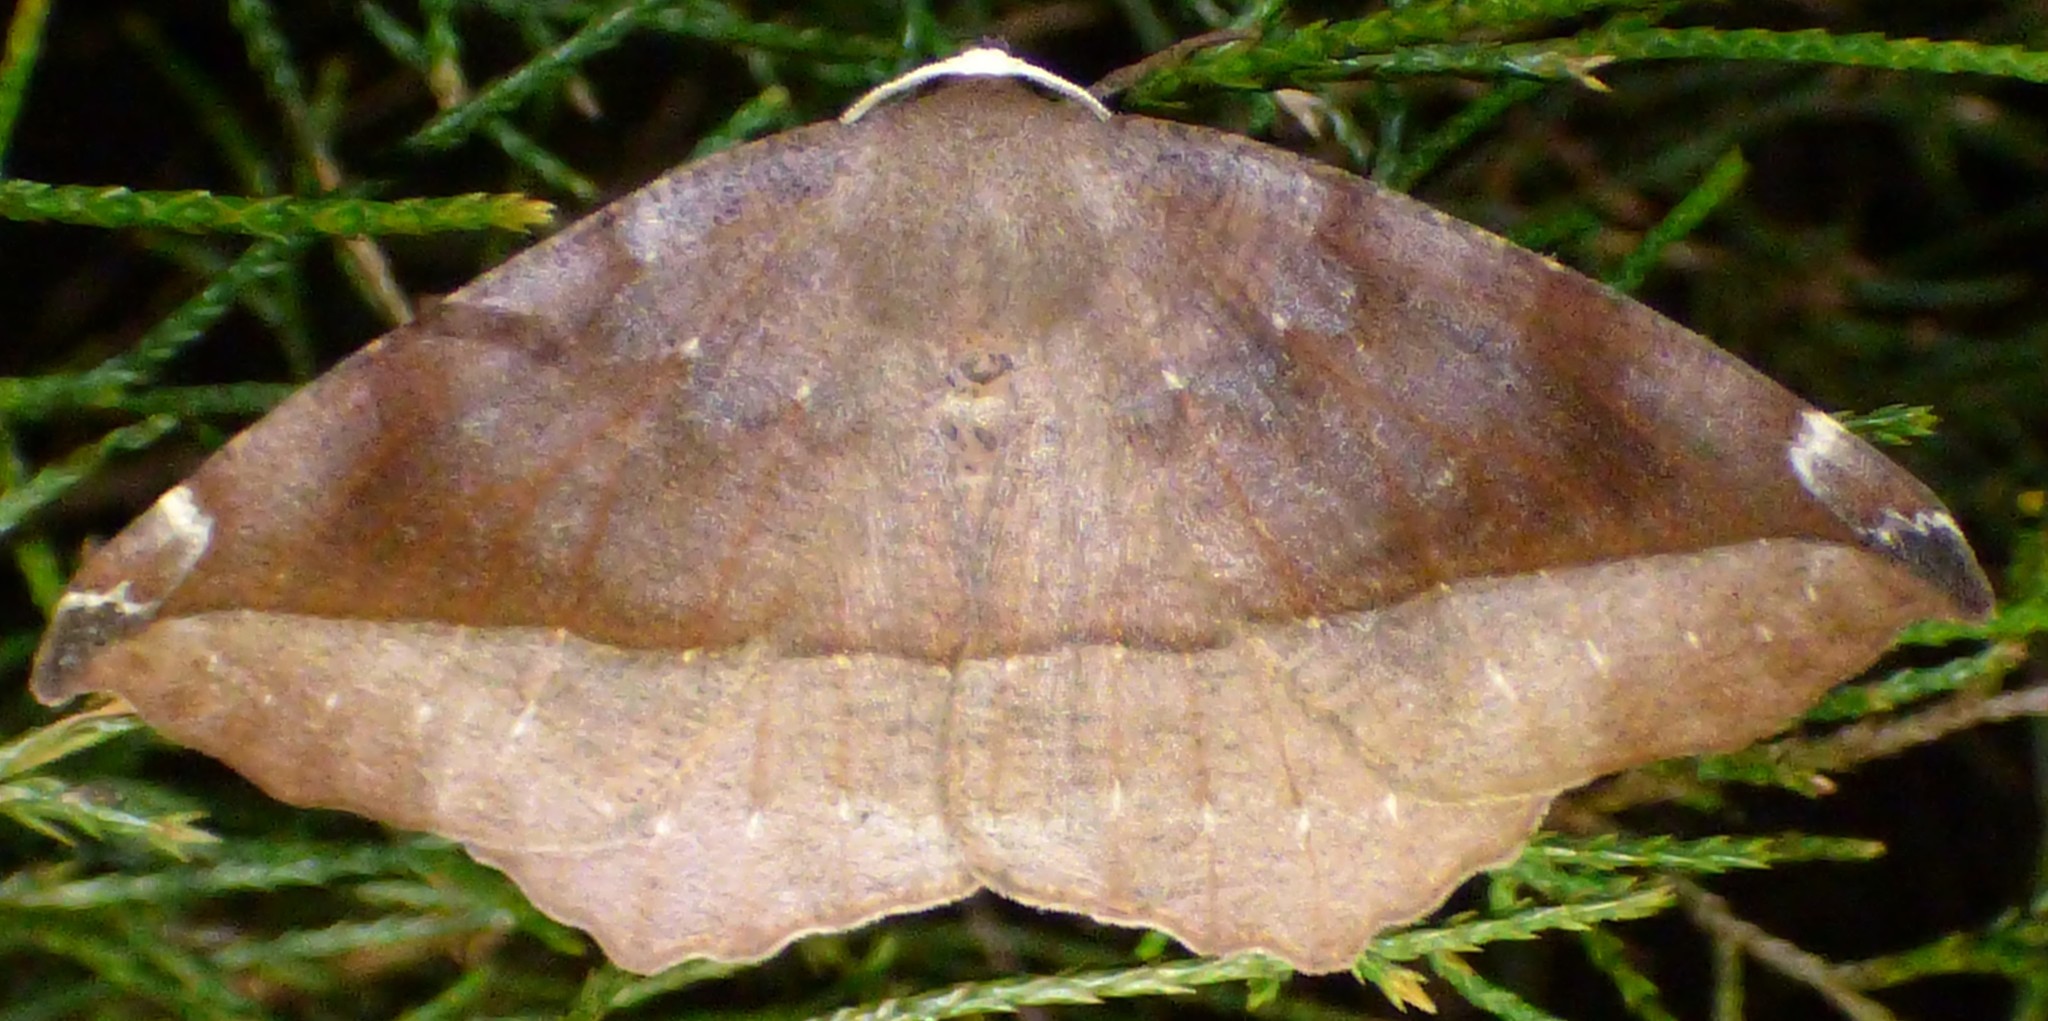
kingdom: Animalia
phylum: Arthropoda
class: Insecta
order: Lepidoptera
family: Geometridae
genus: Eutrapela
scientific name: Eutrapela clemataria
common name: Curved-toothed geometer
